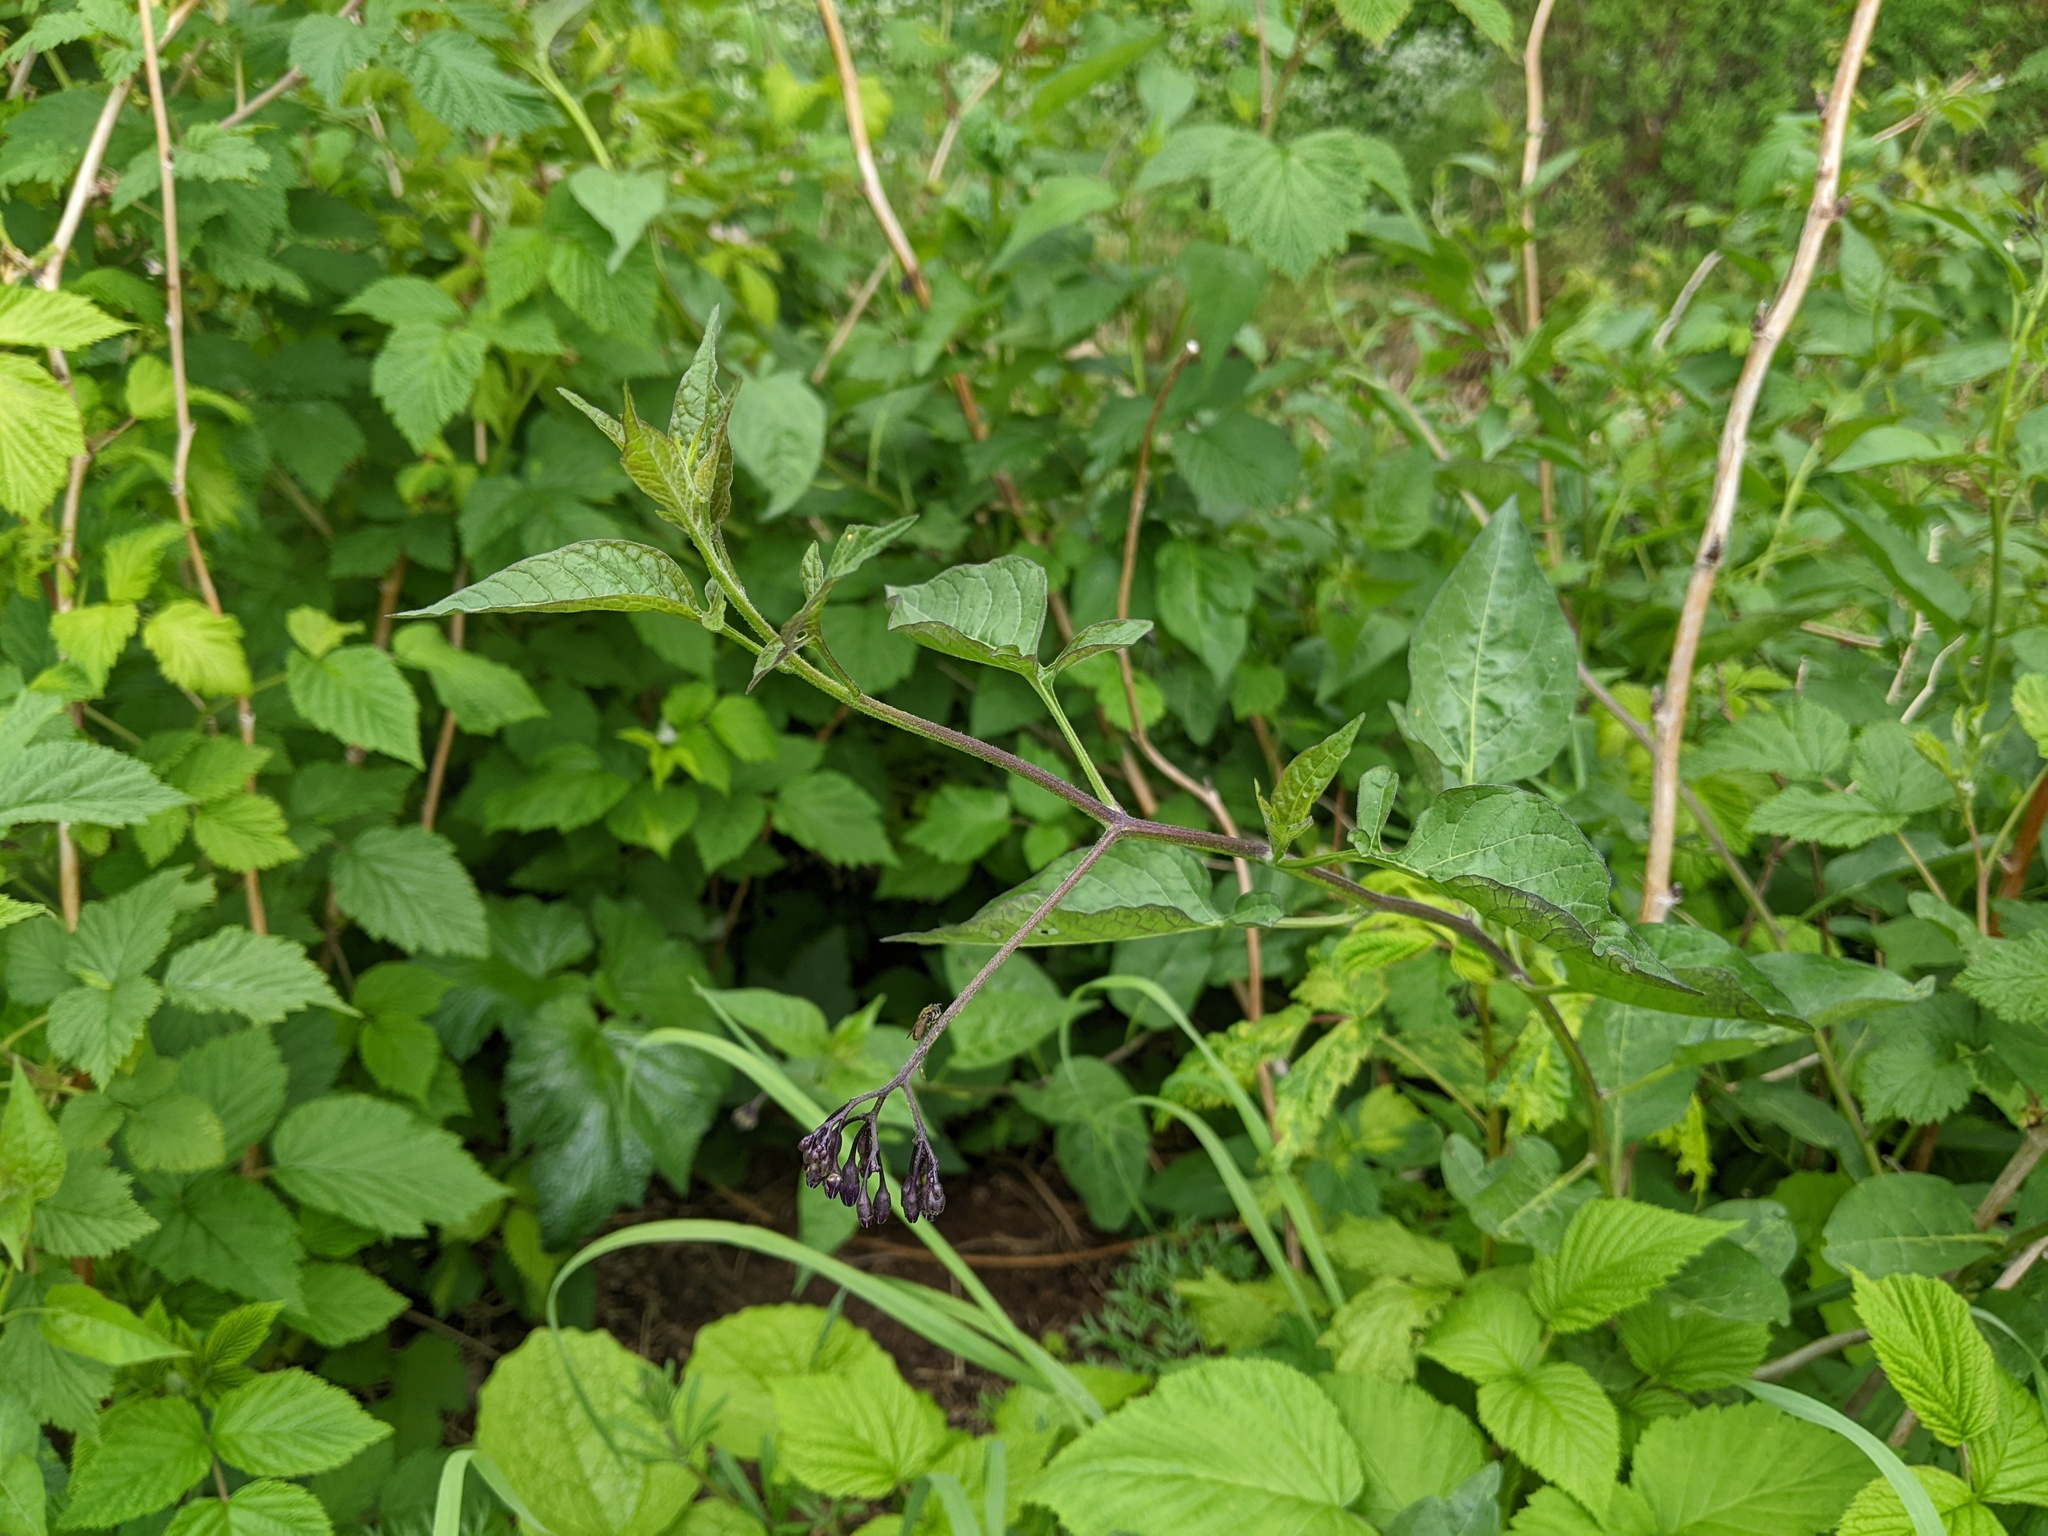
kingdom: Plantae
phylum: Tracheophyta
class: Magnoliopsida
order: Solanales
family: Solanaceae
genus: Solanum
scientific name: Solanum dulcamara
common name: Climbing nightshade
